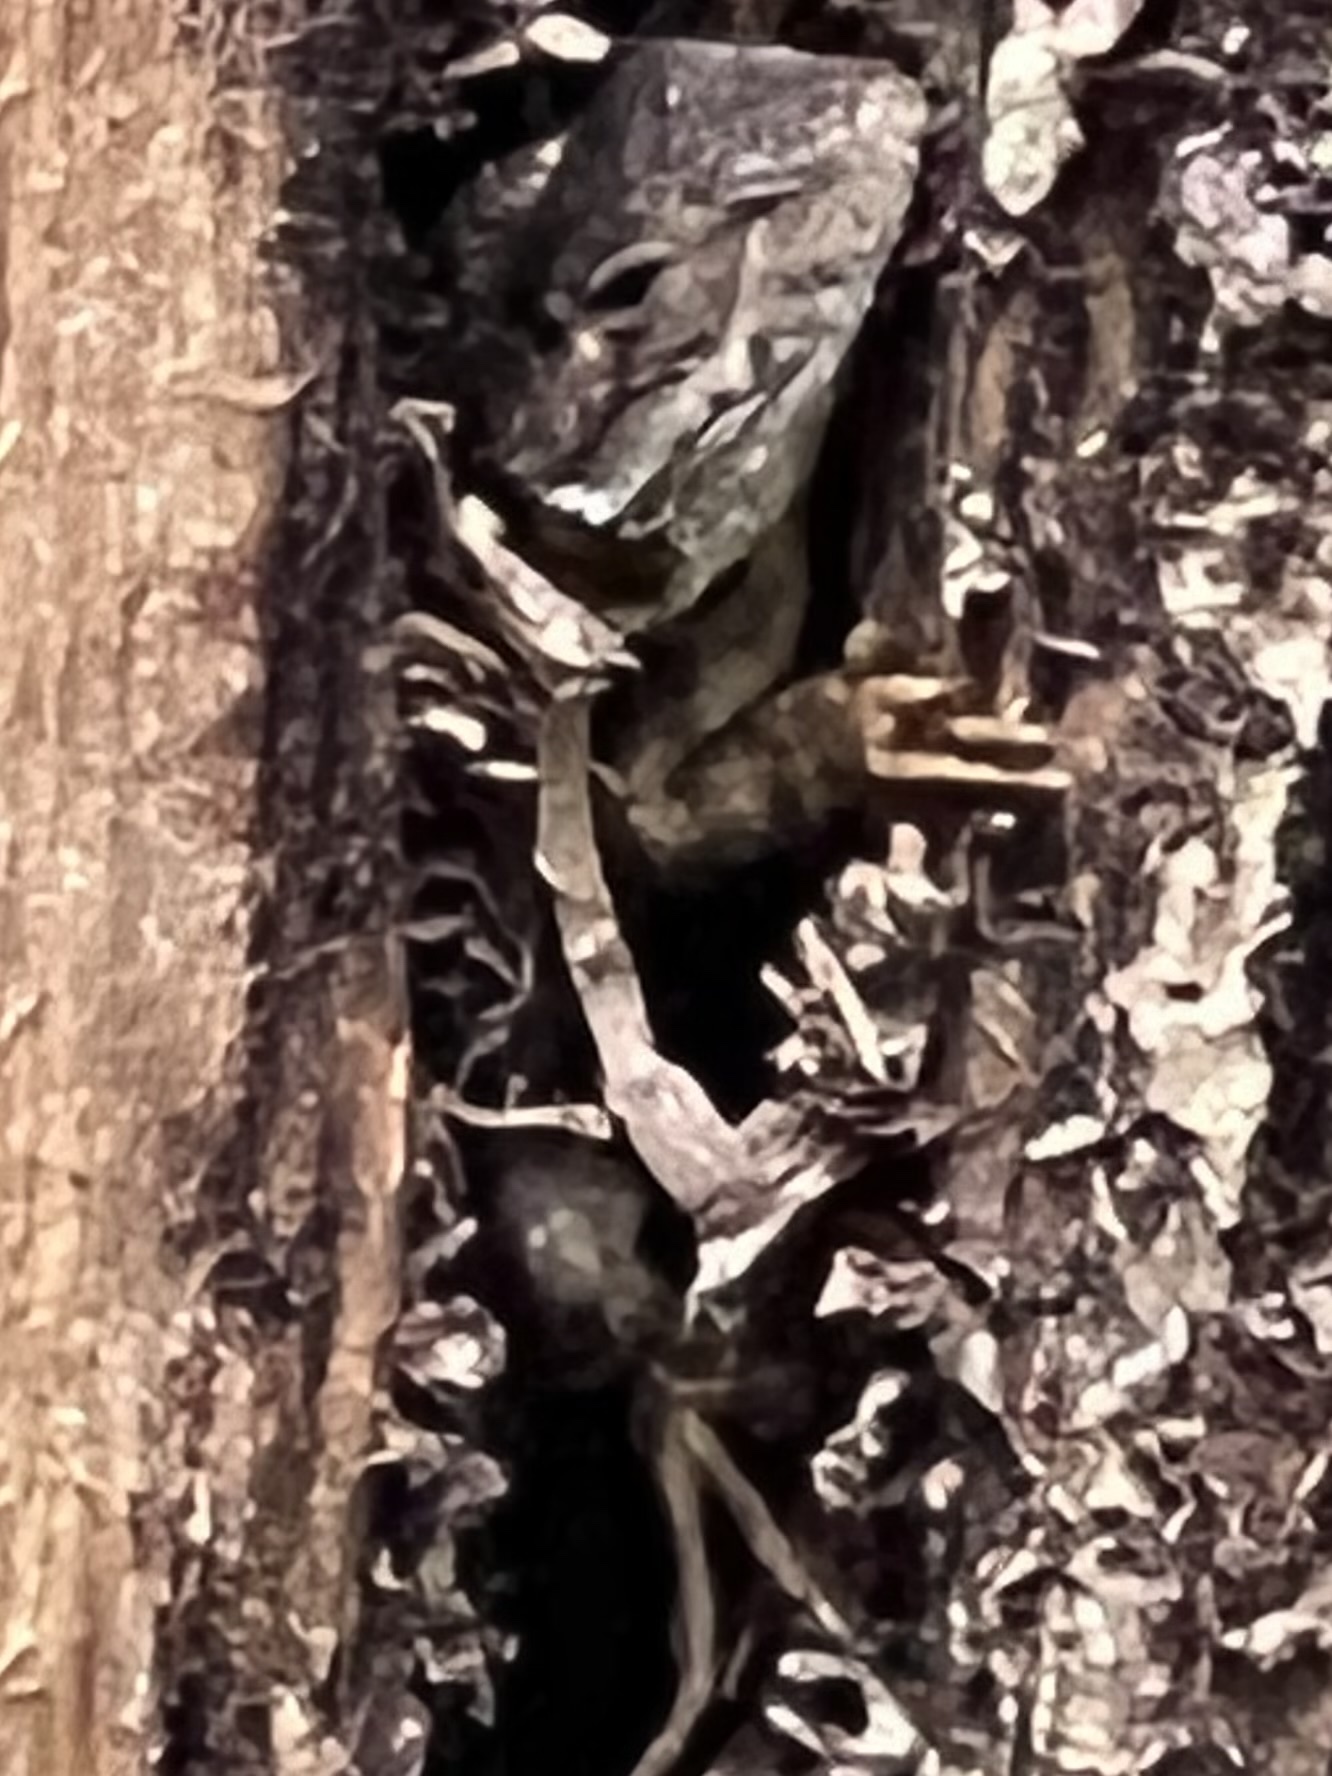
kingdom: Animalia
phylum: Chordata
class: Squamata
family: Phrynosomatidae
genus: Sceloporus
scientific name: Sceloporus occidentalis
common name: Western fence lizard
